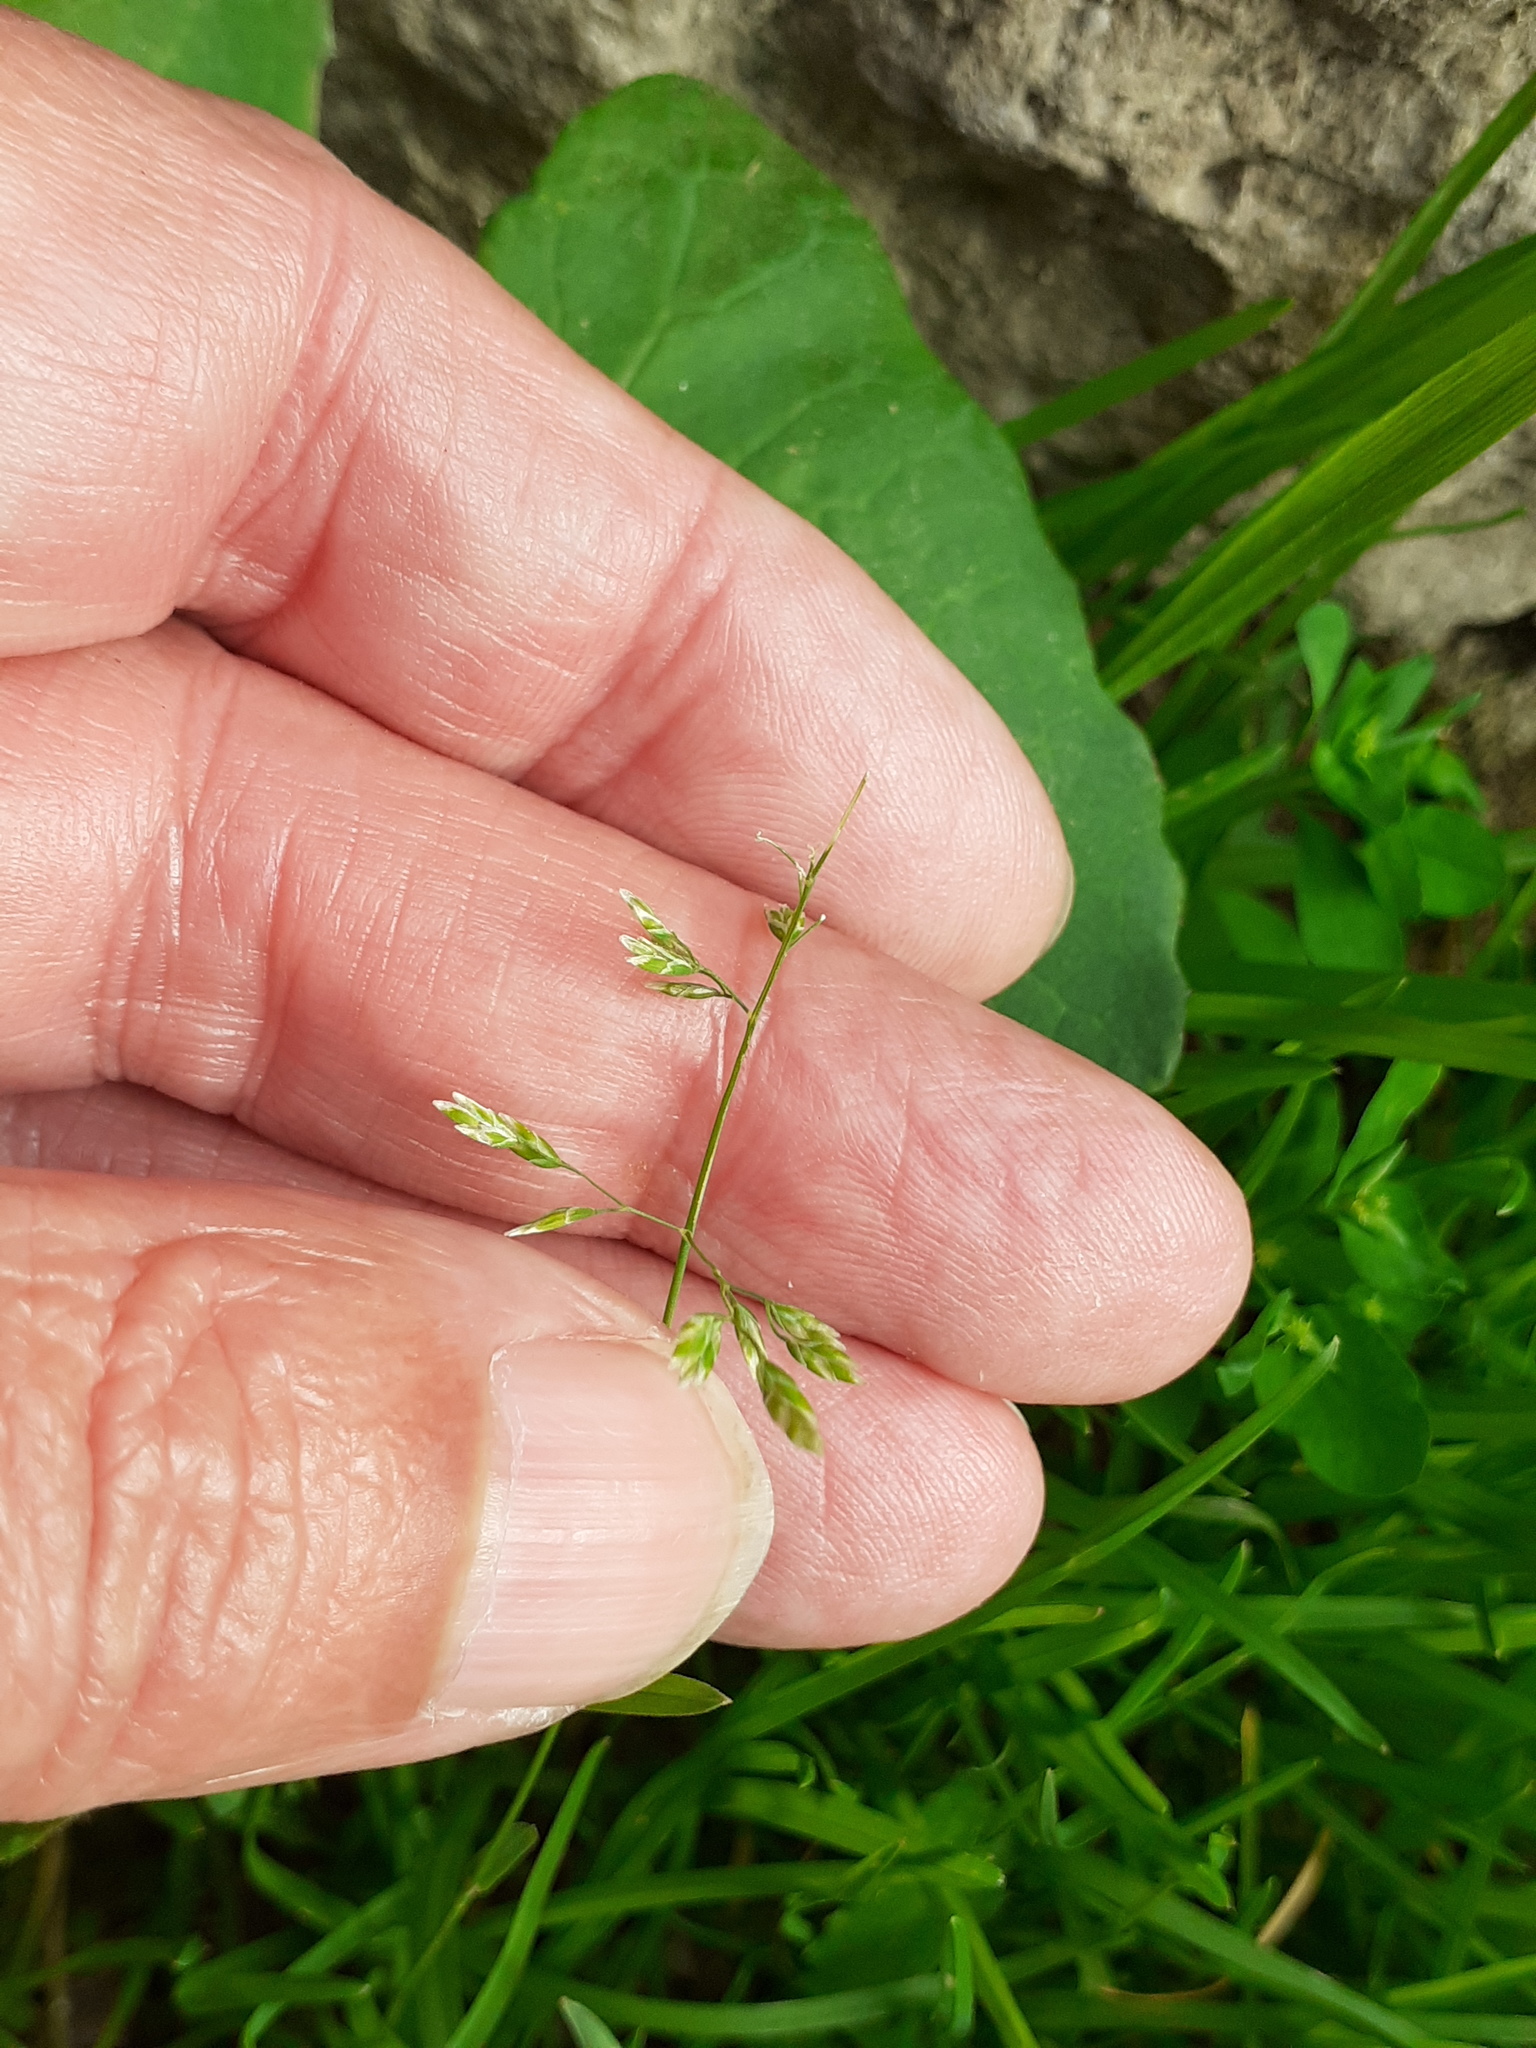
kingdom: Plantae
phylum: Tracheophyta
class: Liliopsida
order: Poales
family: Poaceae
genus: Poa
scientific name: Poa annua
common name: Annual bluegrass
